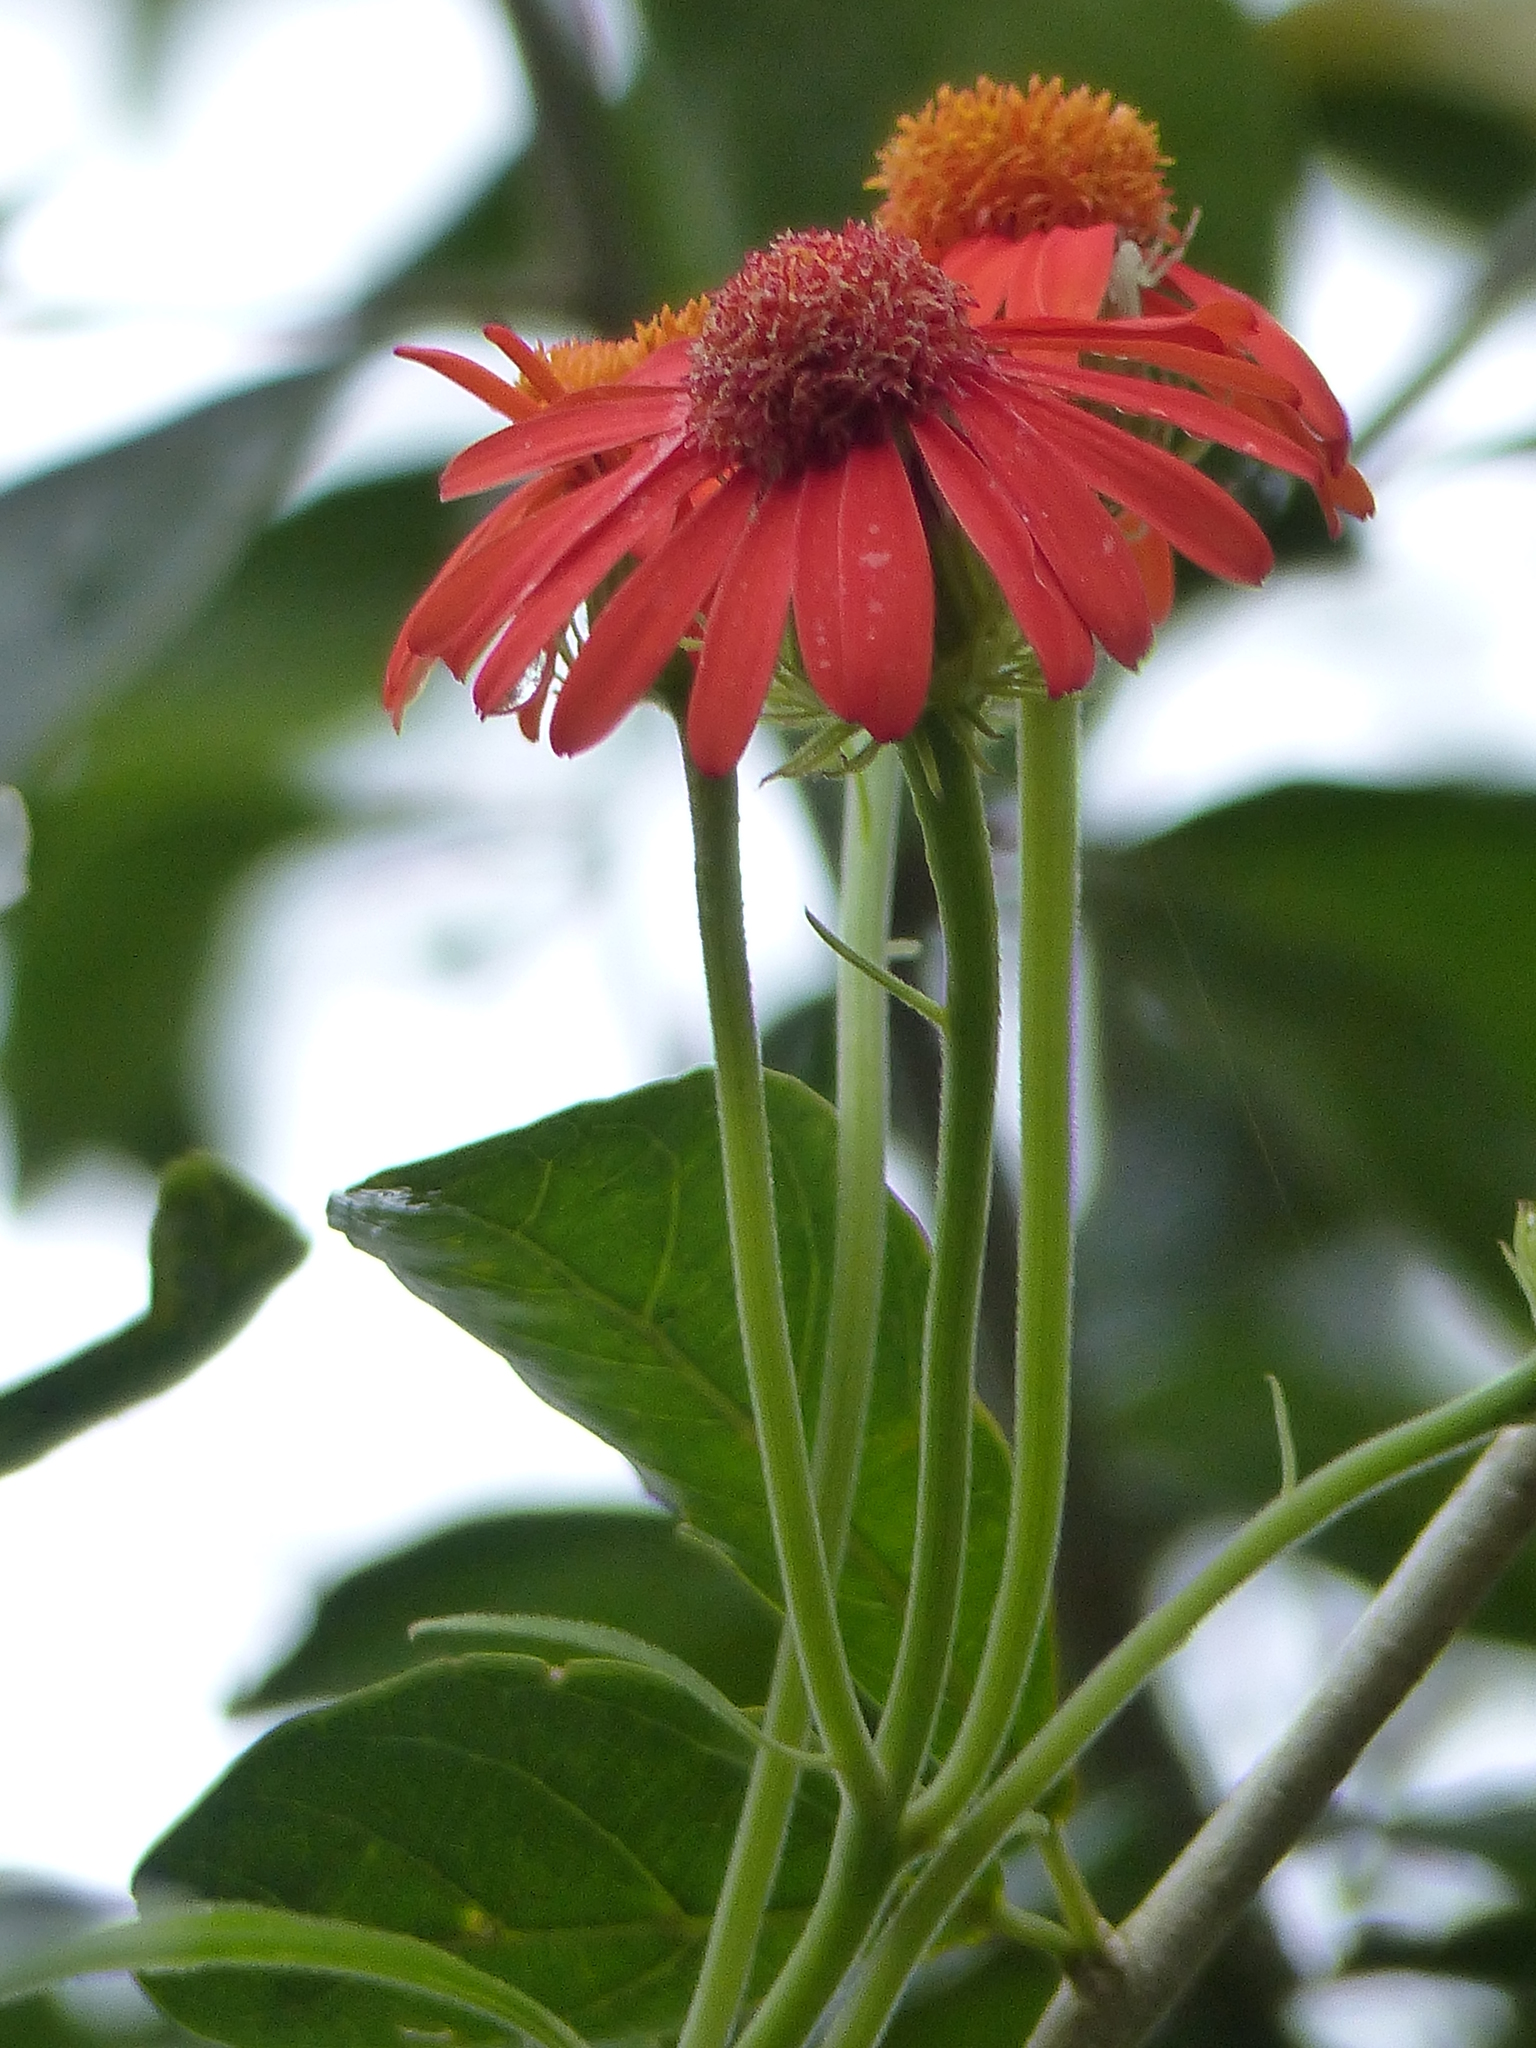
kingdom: Plantae
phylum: Tracheophyta
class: Magnoliopsida
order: Asterales
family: Asteraceae
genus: Pseudogynoxys
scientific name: Pseudogynoxys cumingii
